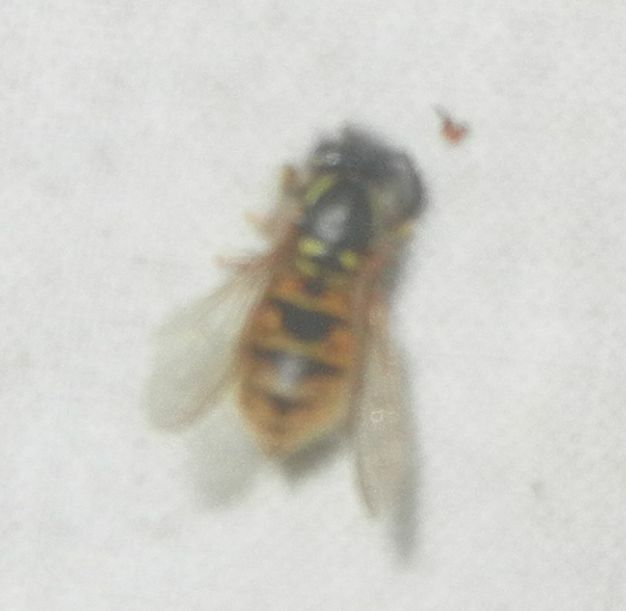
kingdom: Animalia
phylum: Arthropoda
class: Insecta
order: Hymenoptera
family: Vespidae
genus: Vespula
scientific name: Vespula vulgaris
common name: Common wasp
